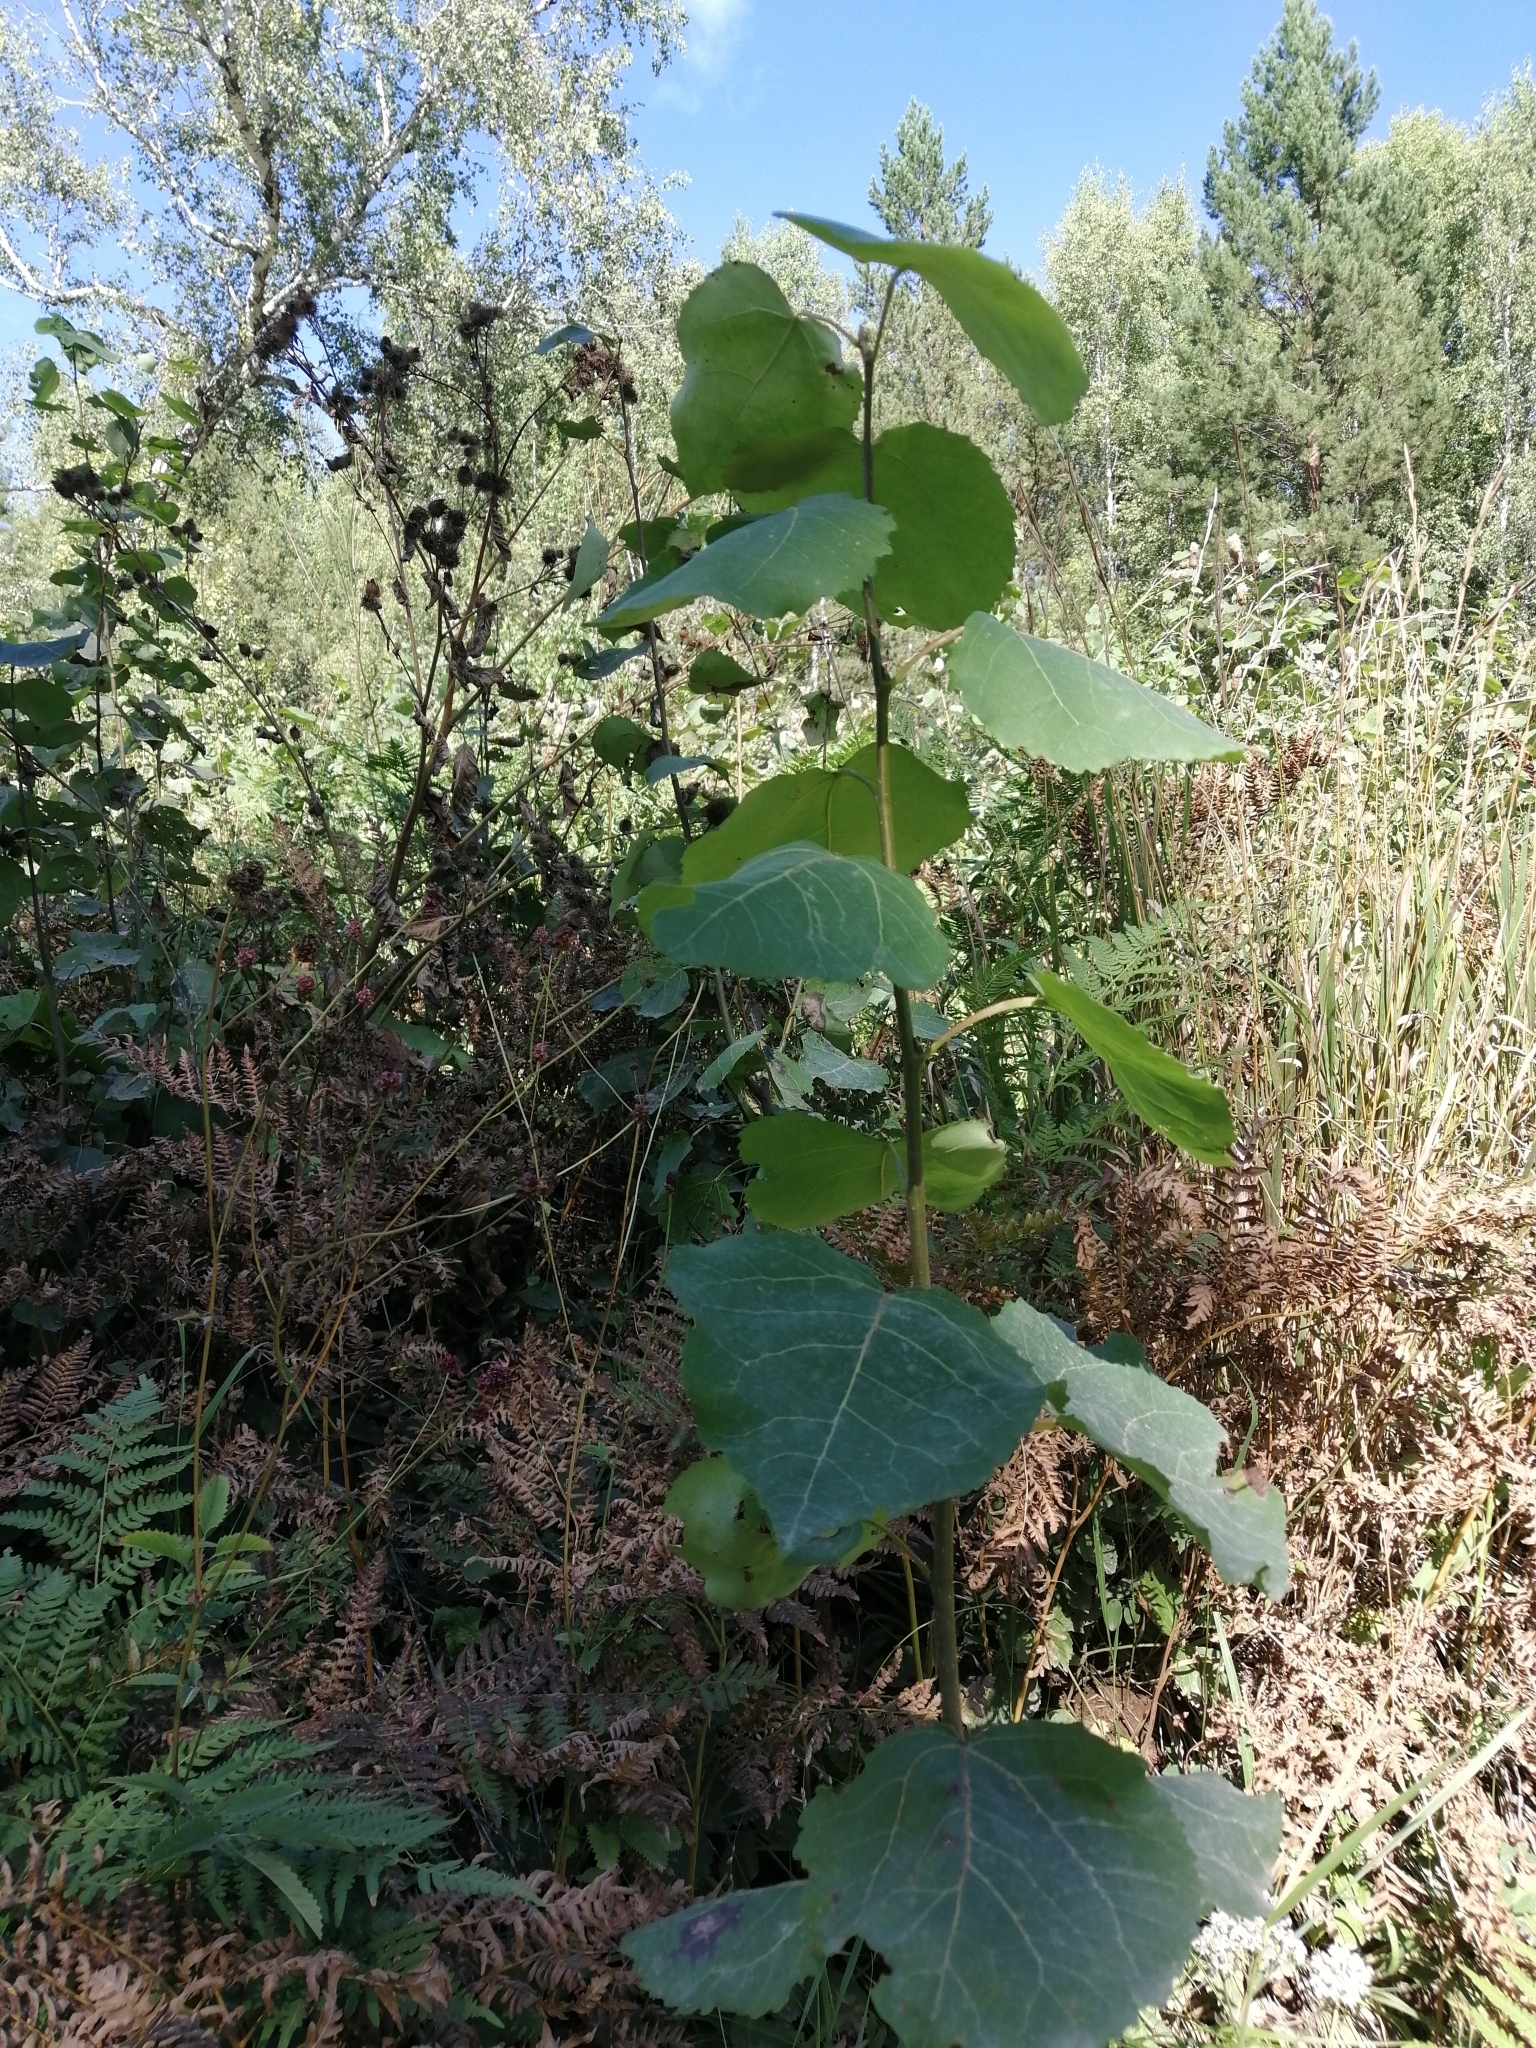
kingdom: Plantae
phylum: Tracheophyta
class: Magnoliopsida
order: Malpighiales
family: Salicaceae
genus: Populus
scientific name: Populus tremula
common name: European aspen
